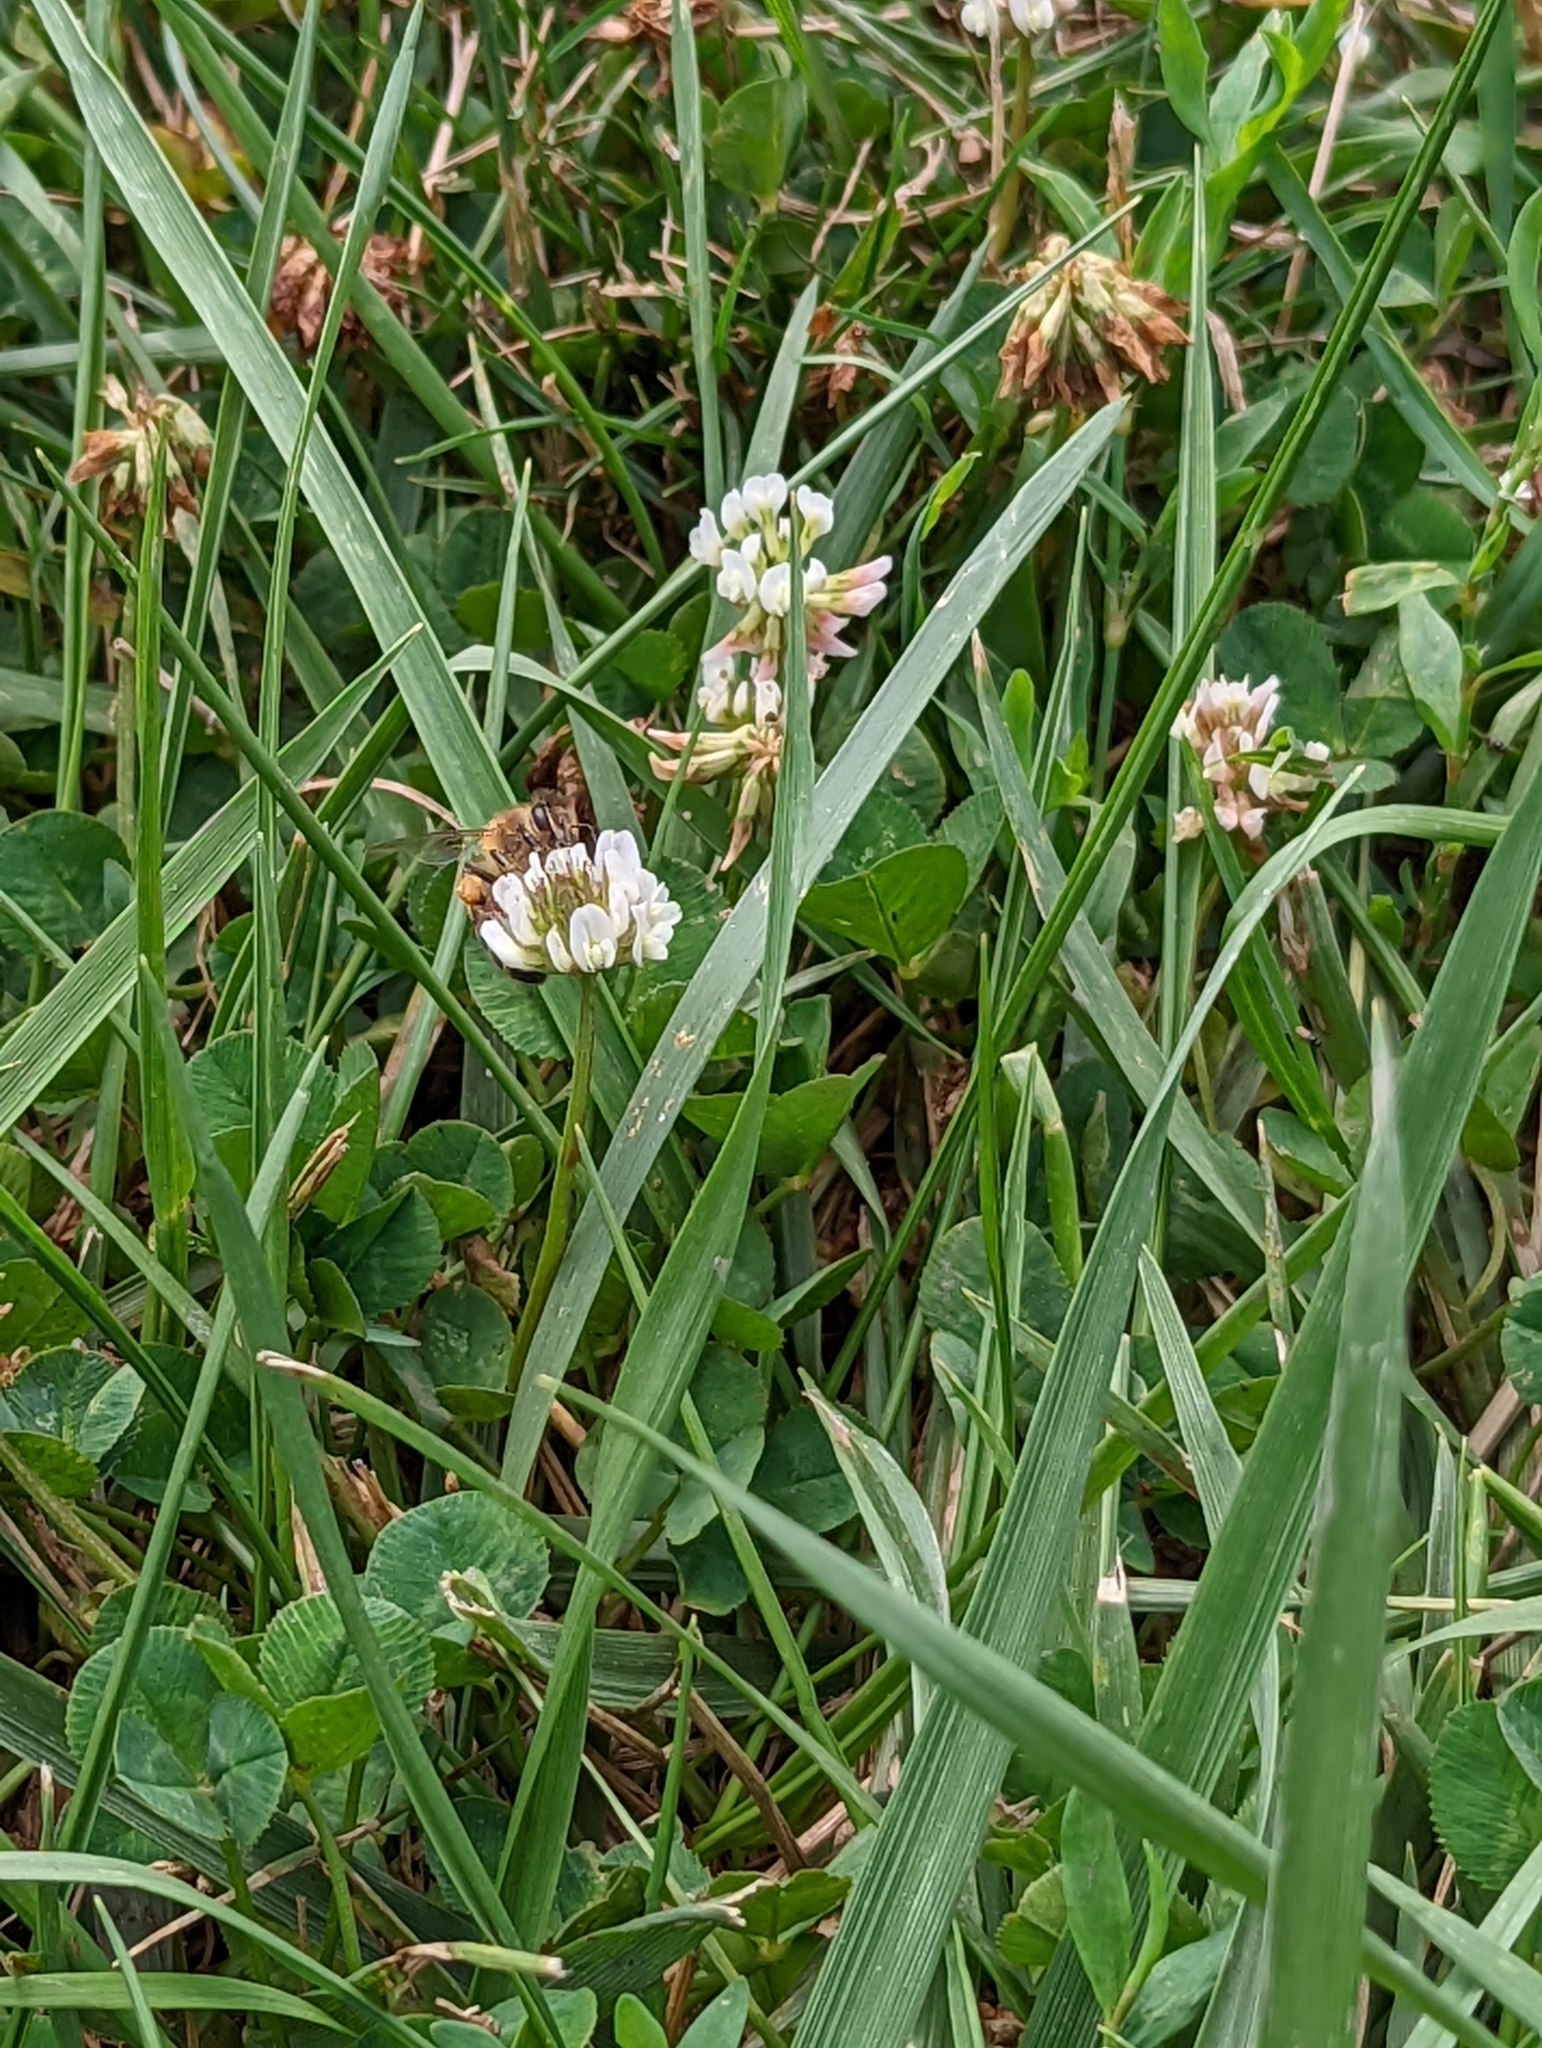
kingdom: Animalia
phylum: Arthropoda
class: Insecta
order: Hymenoptera
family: Apidae
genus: Apis
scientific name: Apis mellifera
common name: Honey bee
